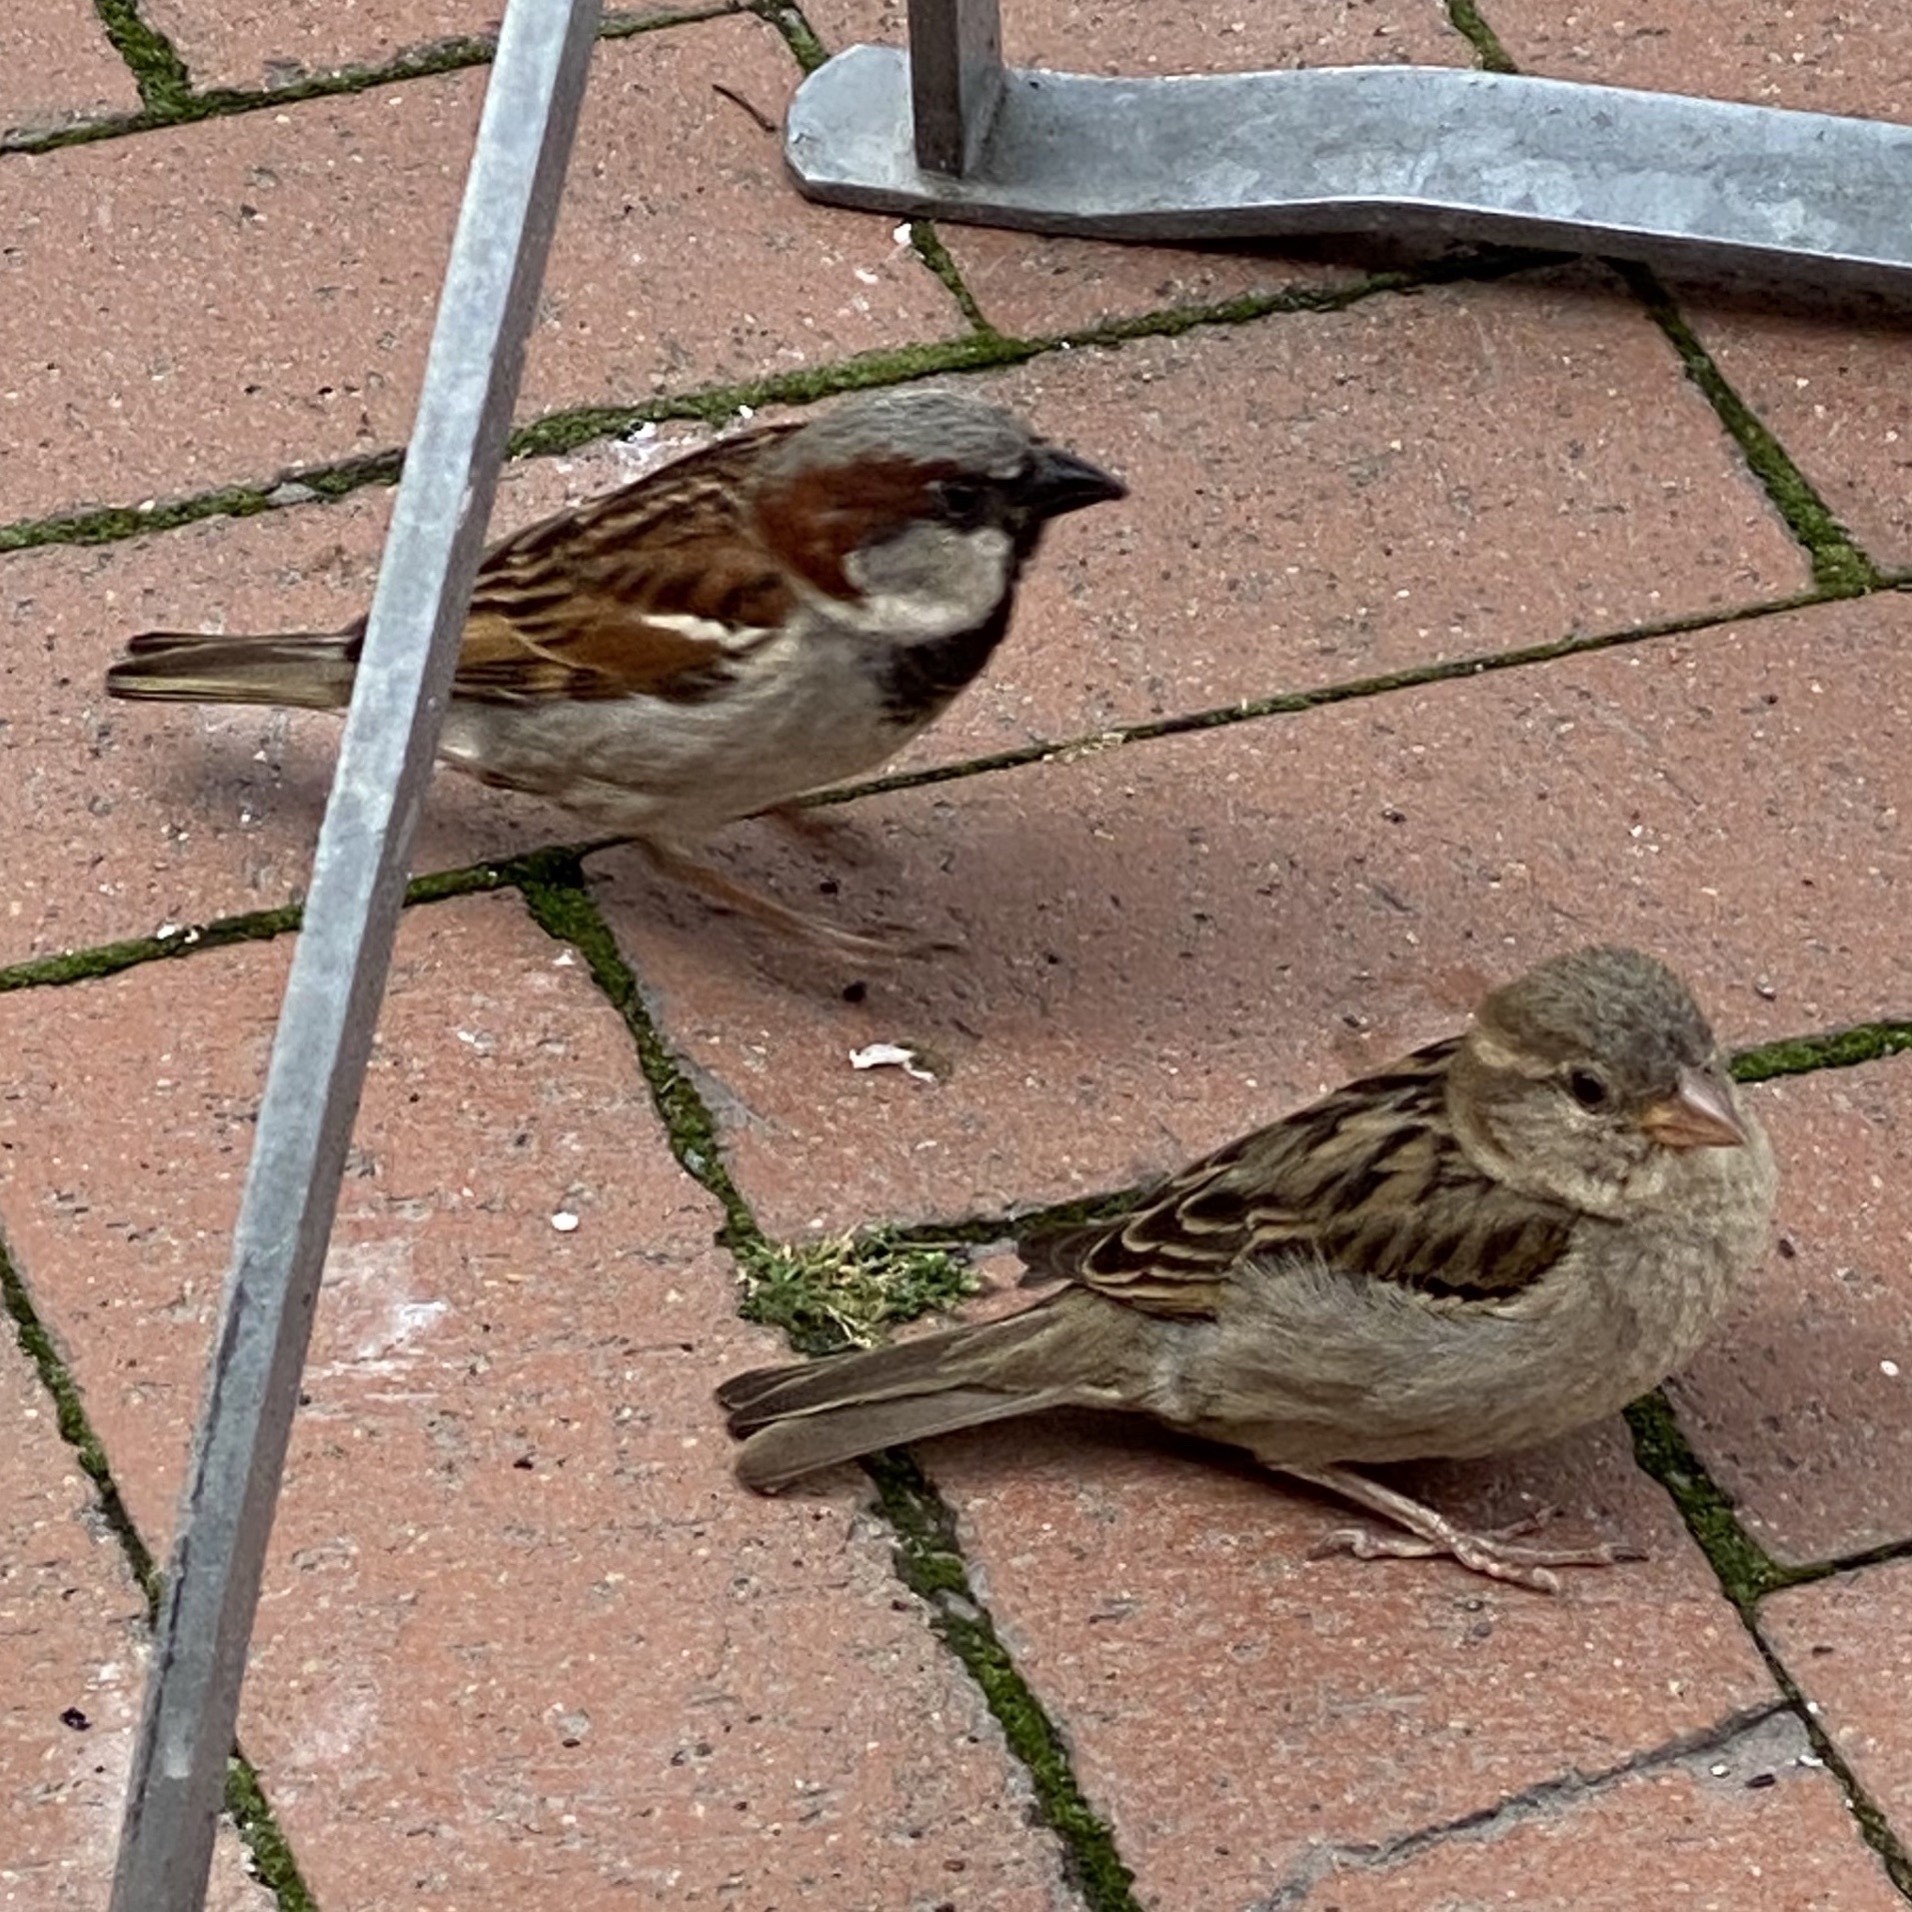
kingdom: Animalia
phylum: Chordata
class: Aves
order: Passeriformes
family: Passeridae
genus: Passer
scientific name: Passer domesticus
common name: House sparrow
